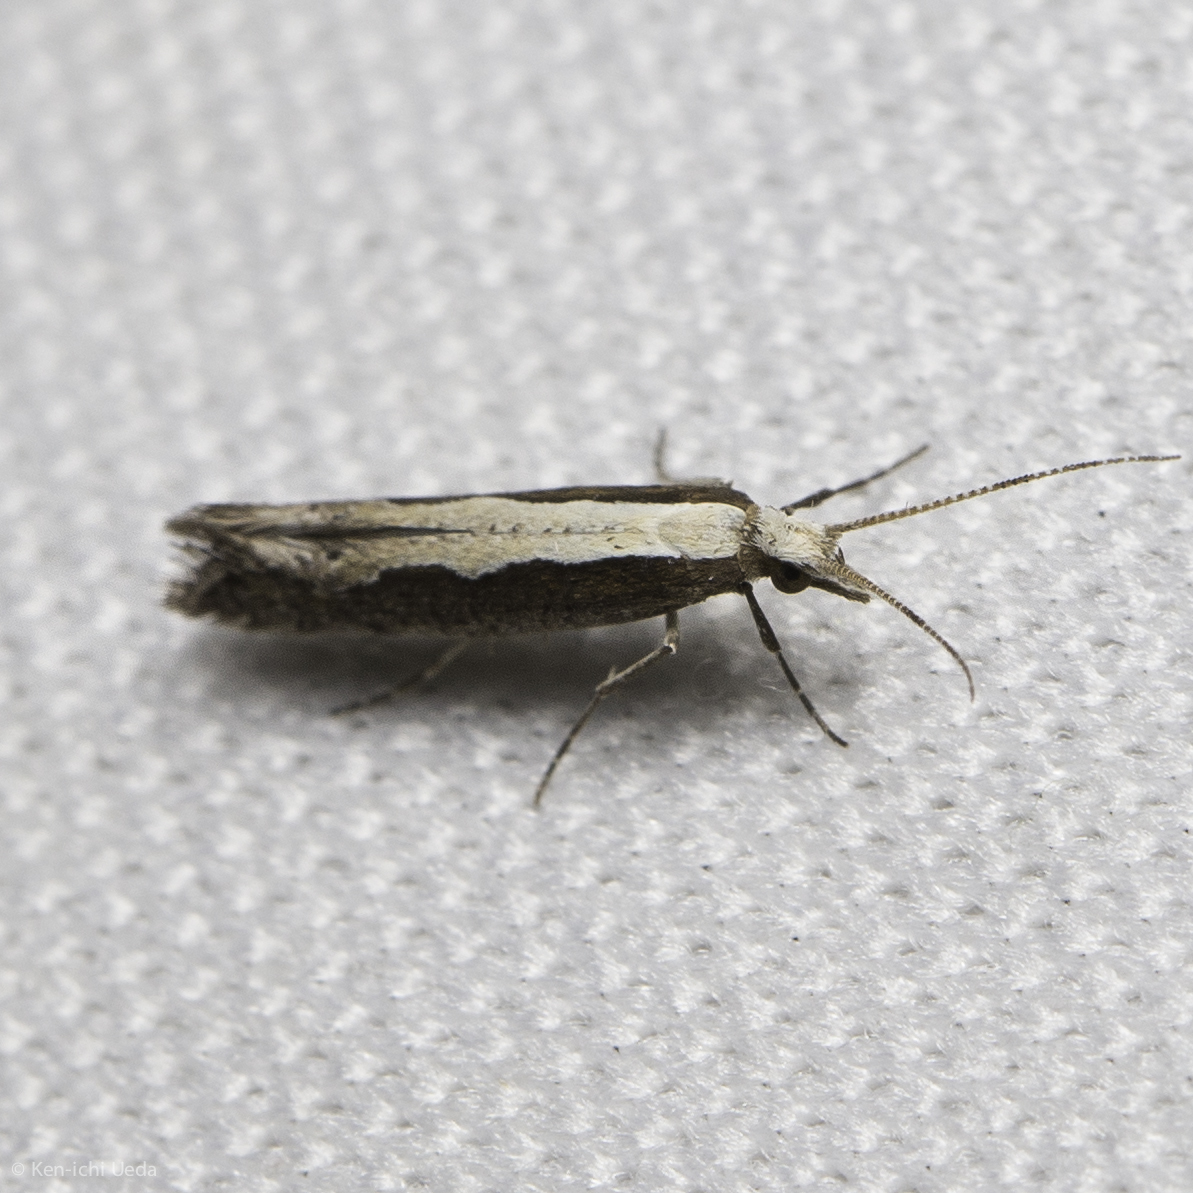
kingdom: Animalia
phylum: Arthropoda
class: Insecta
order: Lepidoptera
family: Plutellidae
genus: Plutella
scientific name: Plutella xylostella
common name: Diamond-back moth
